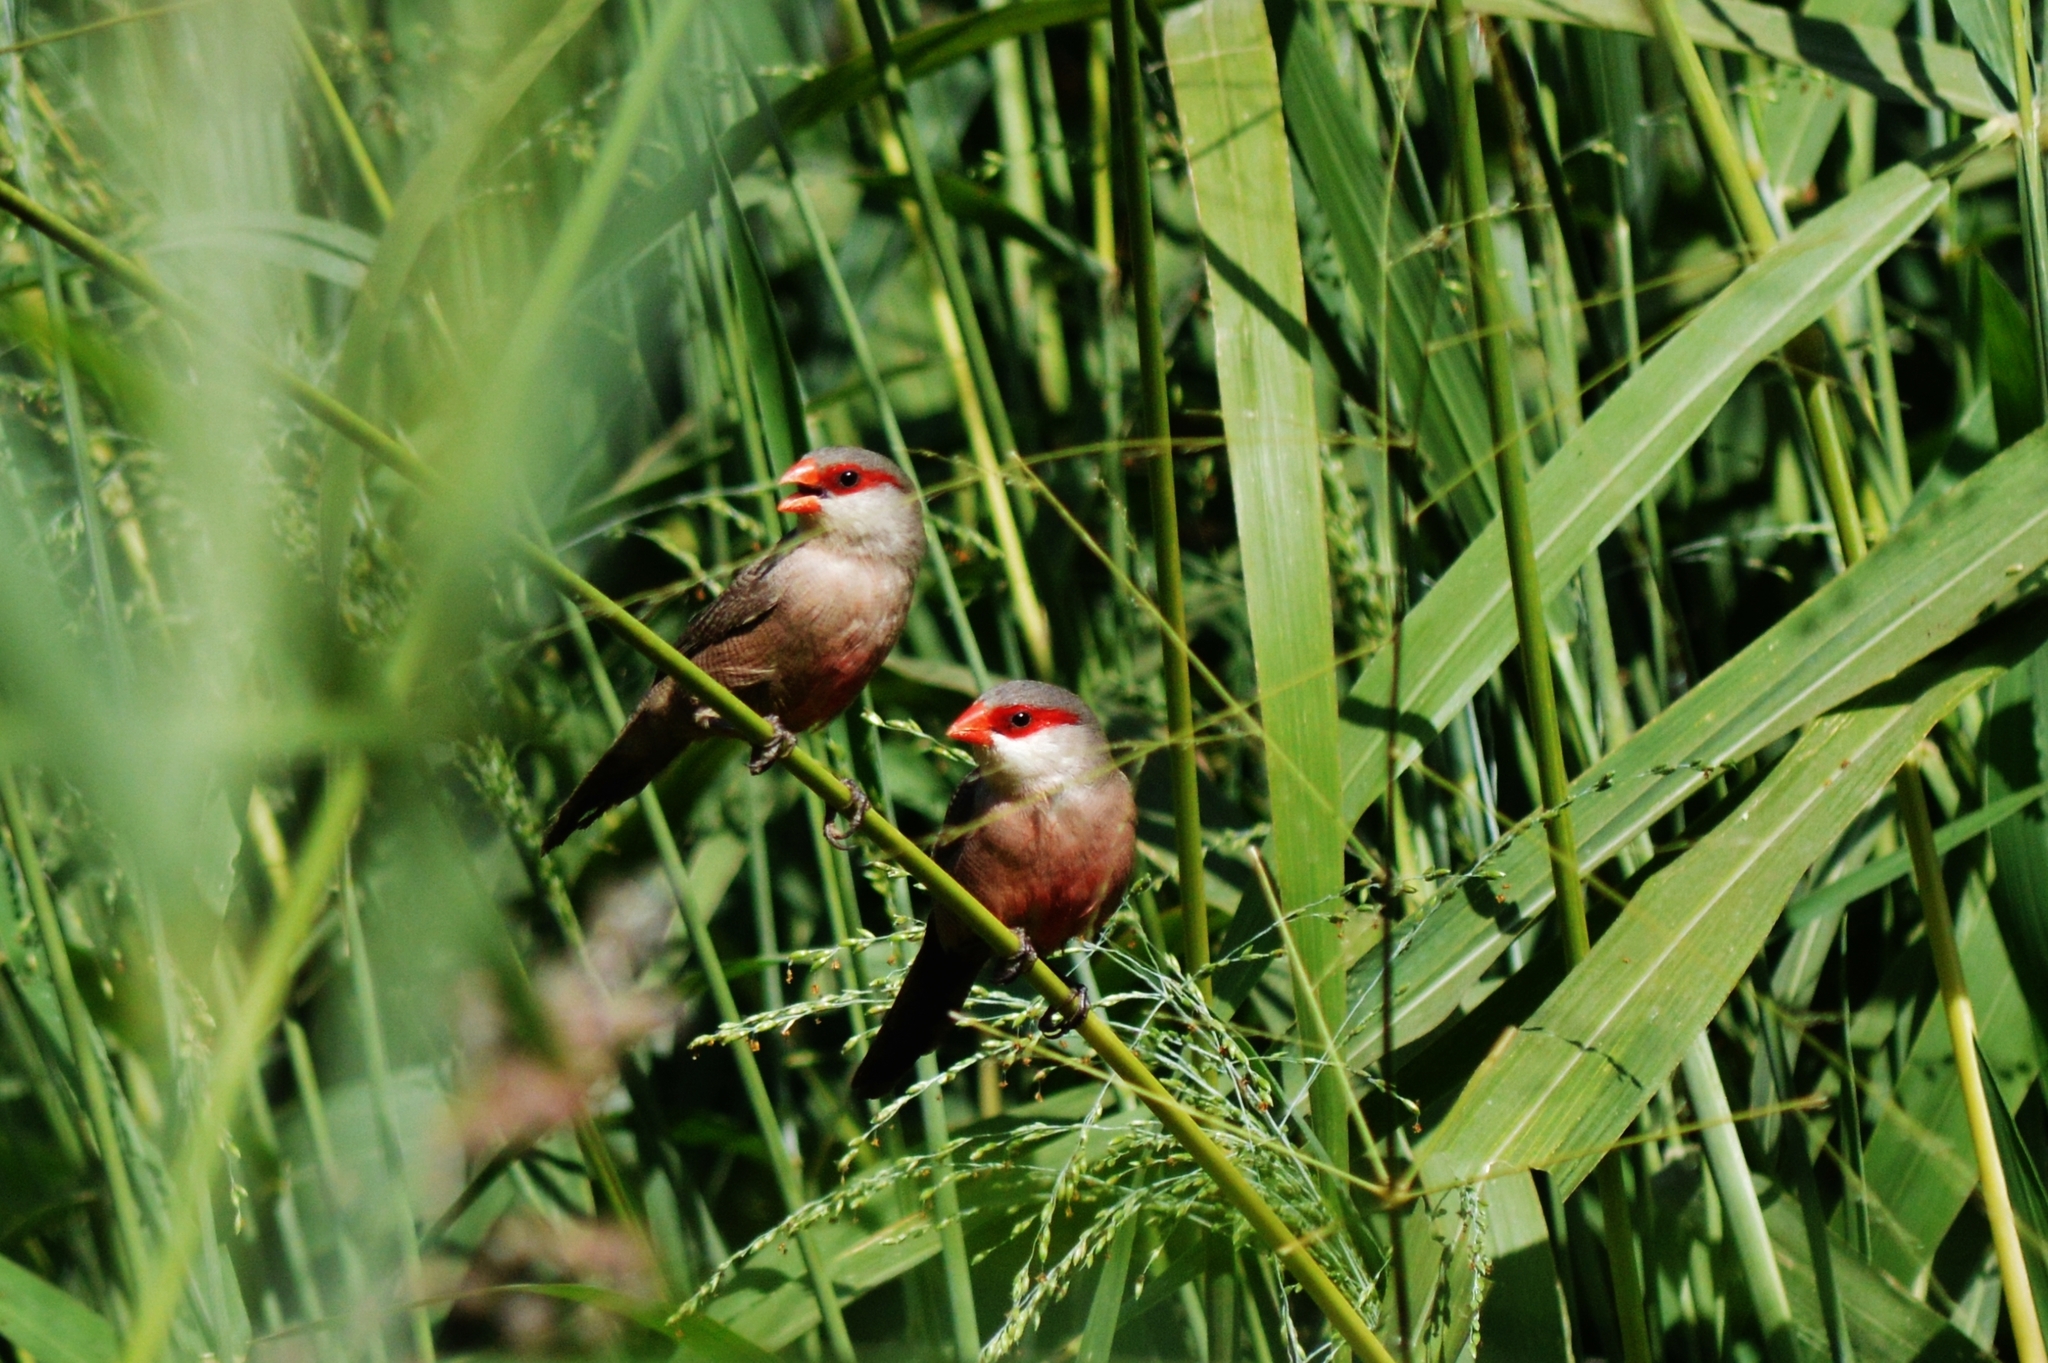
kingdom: Animalia
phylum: Chordata
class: Aves
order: Passeriformes
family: Estrildidae
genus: Estrilda
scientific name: Estrilda astrild
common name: Common waxbill
